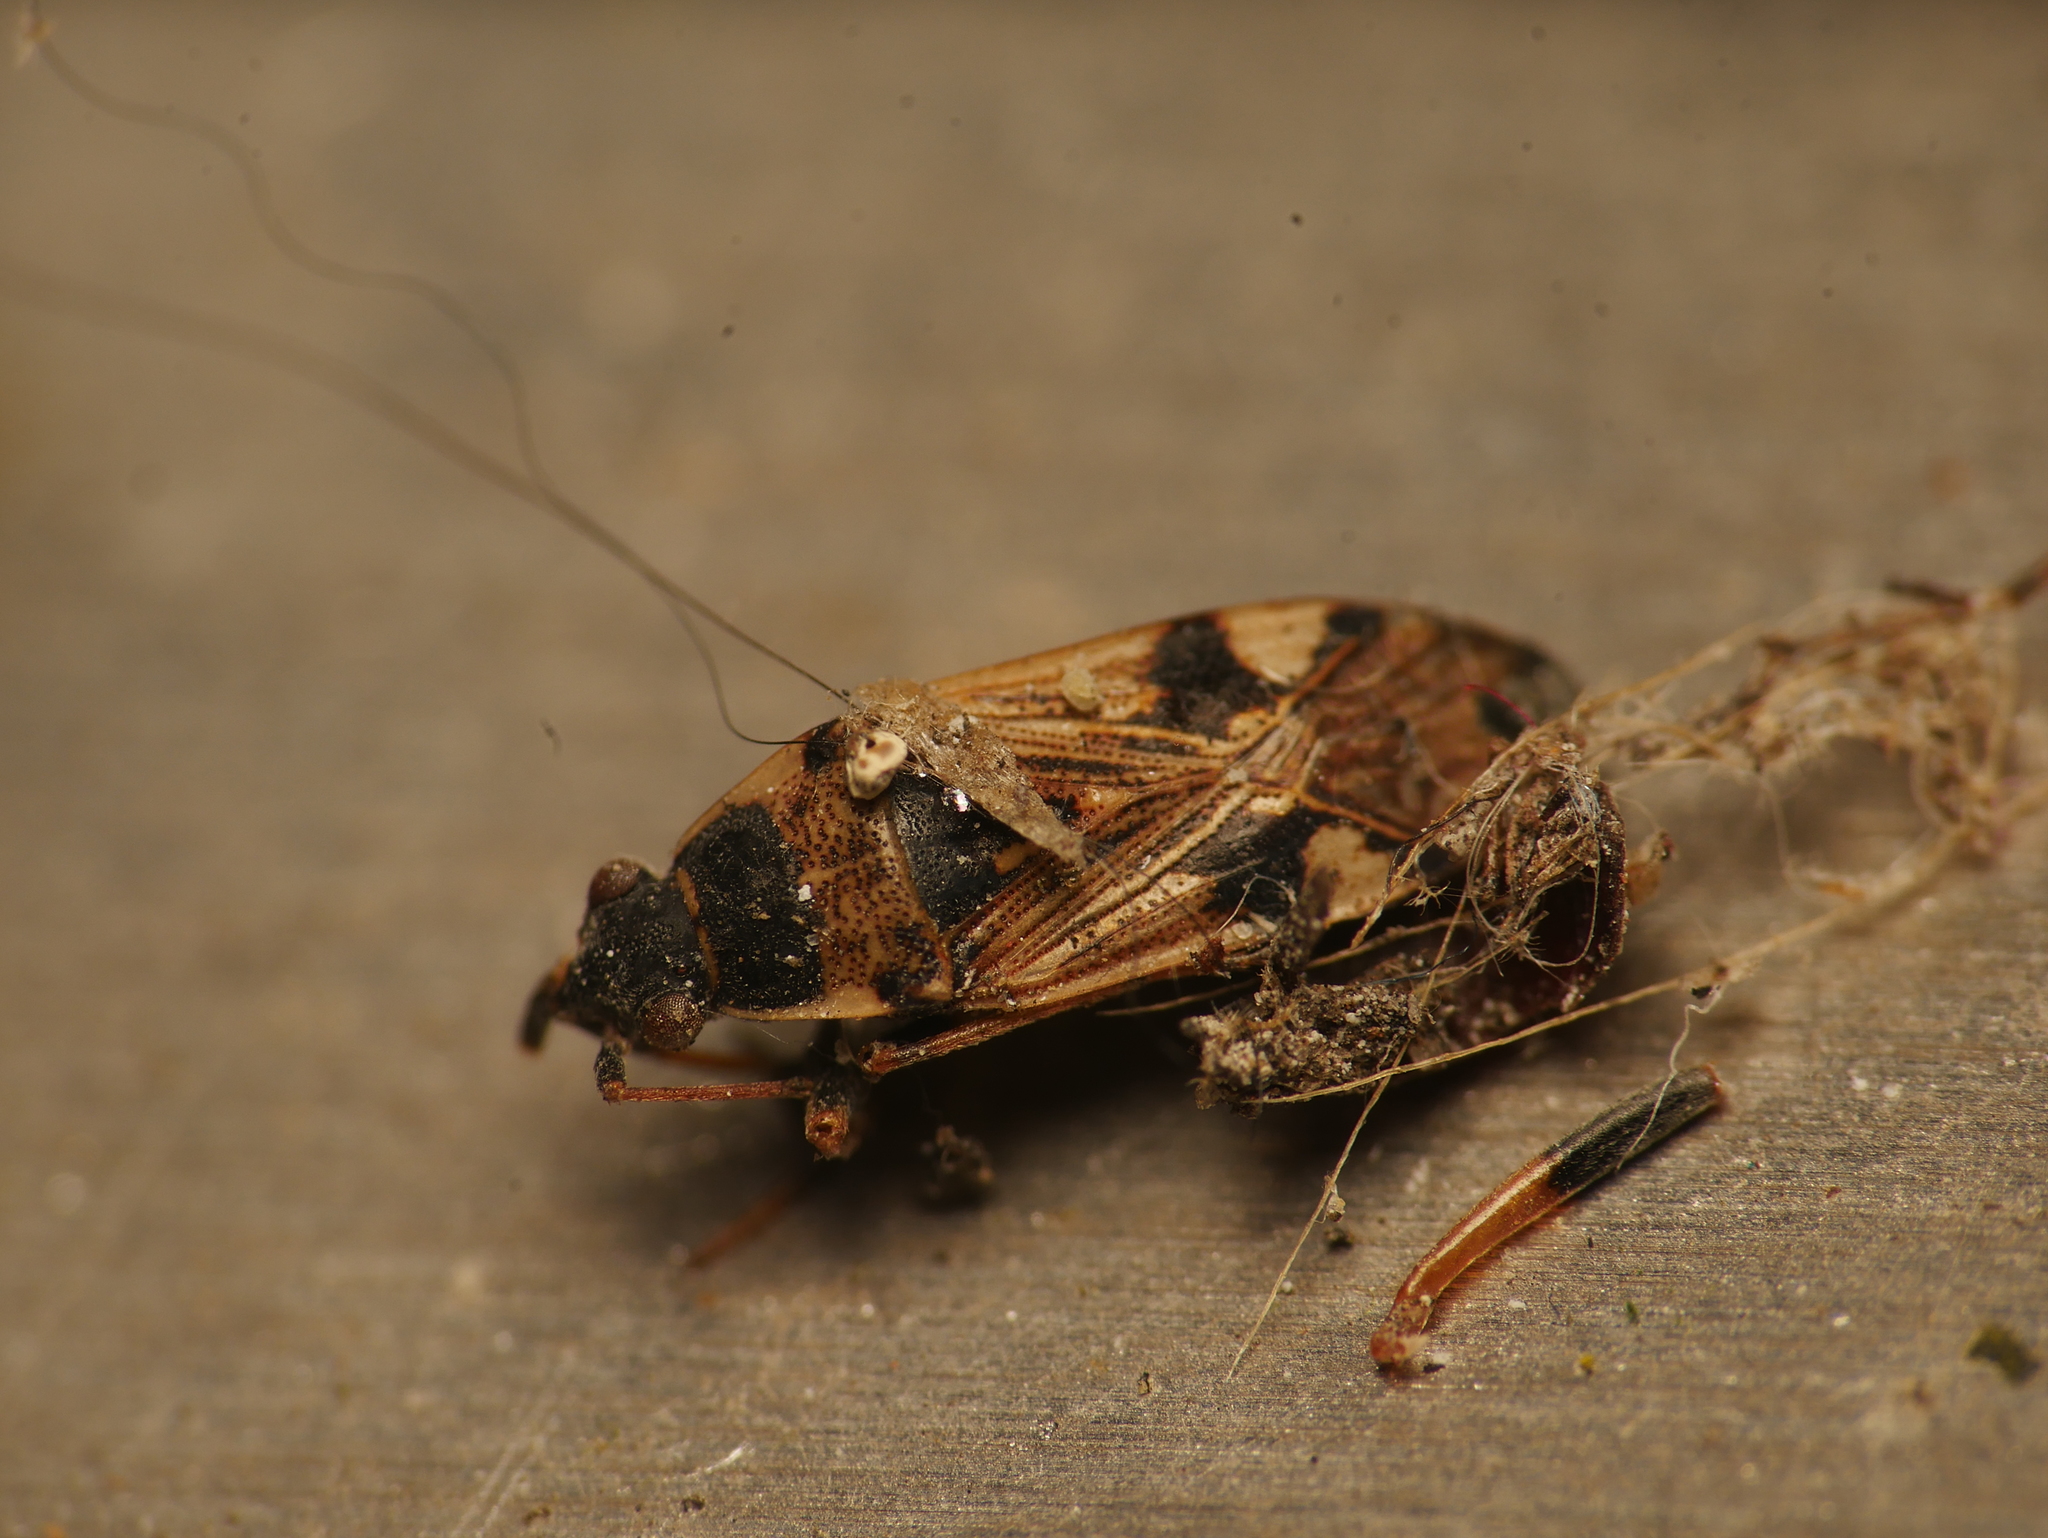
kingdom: Animalia
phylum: Arthropoda
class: Insecta
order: Hemiptera
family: Rhyparochromidae
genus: Beosus
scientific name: Beosus maritimus
